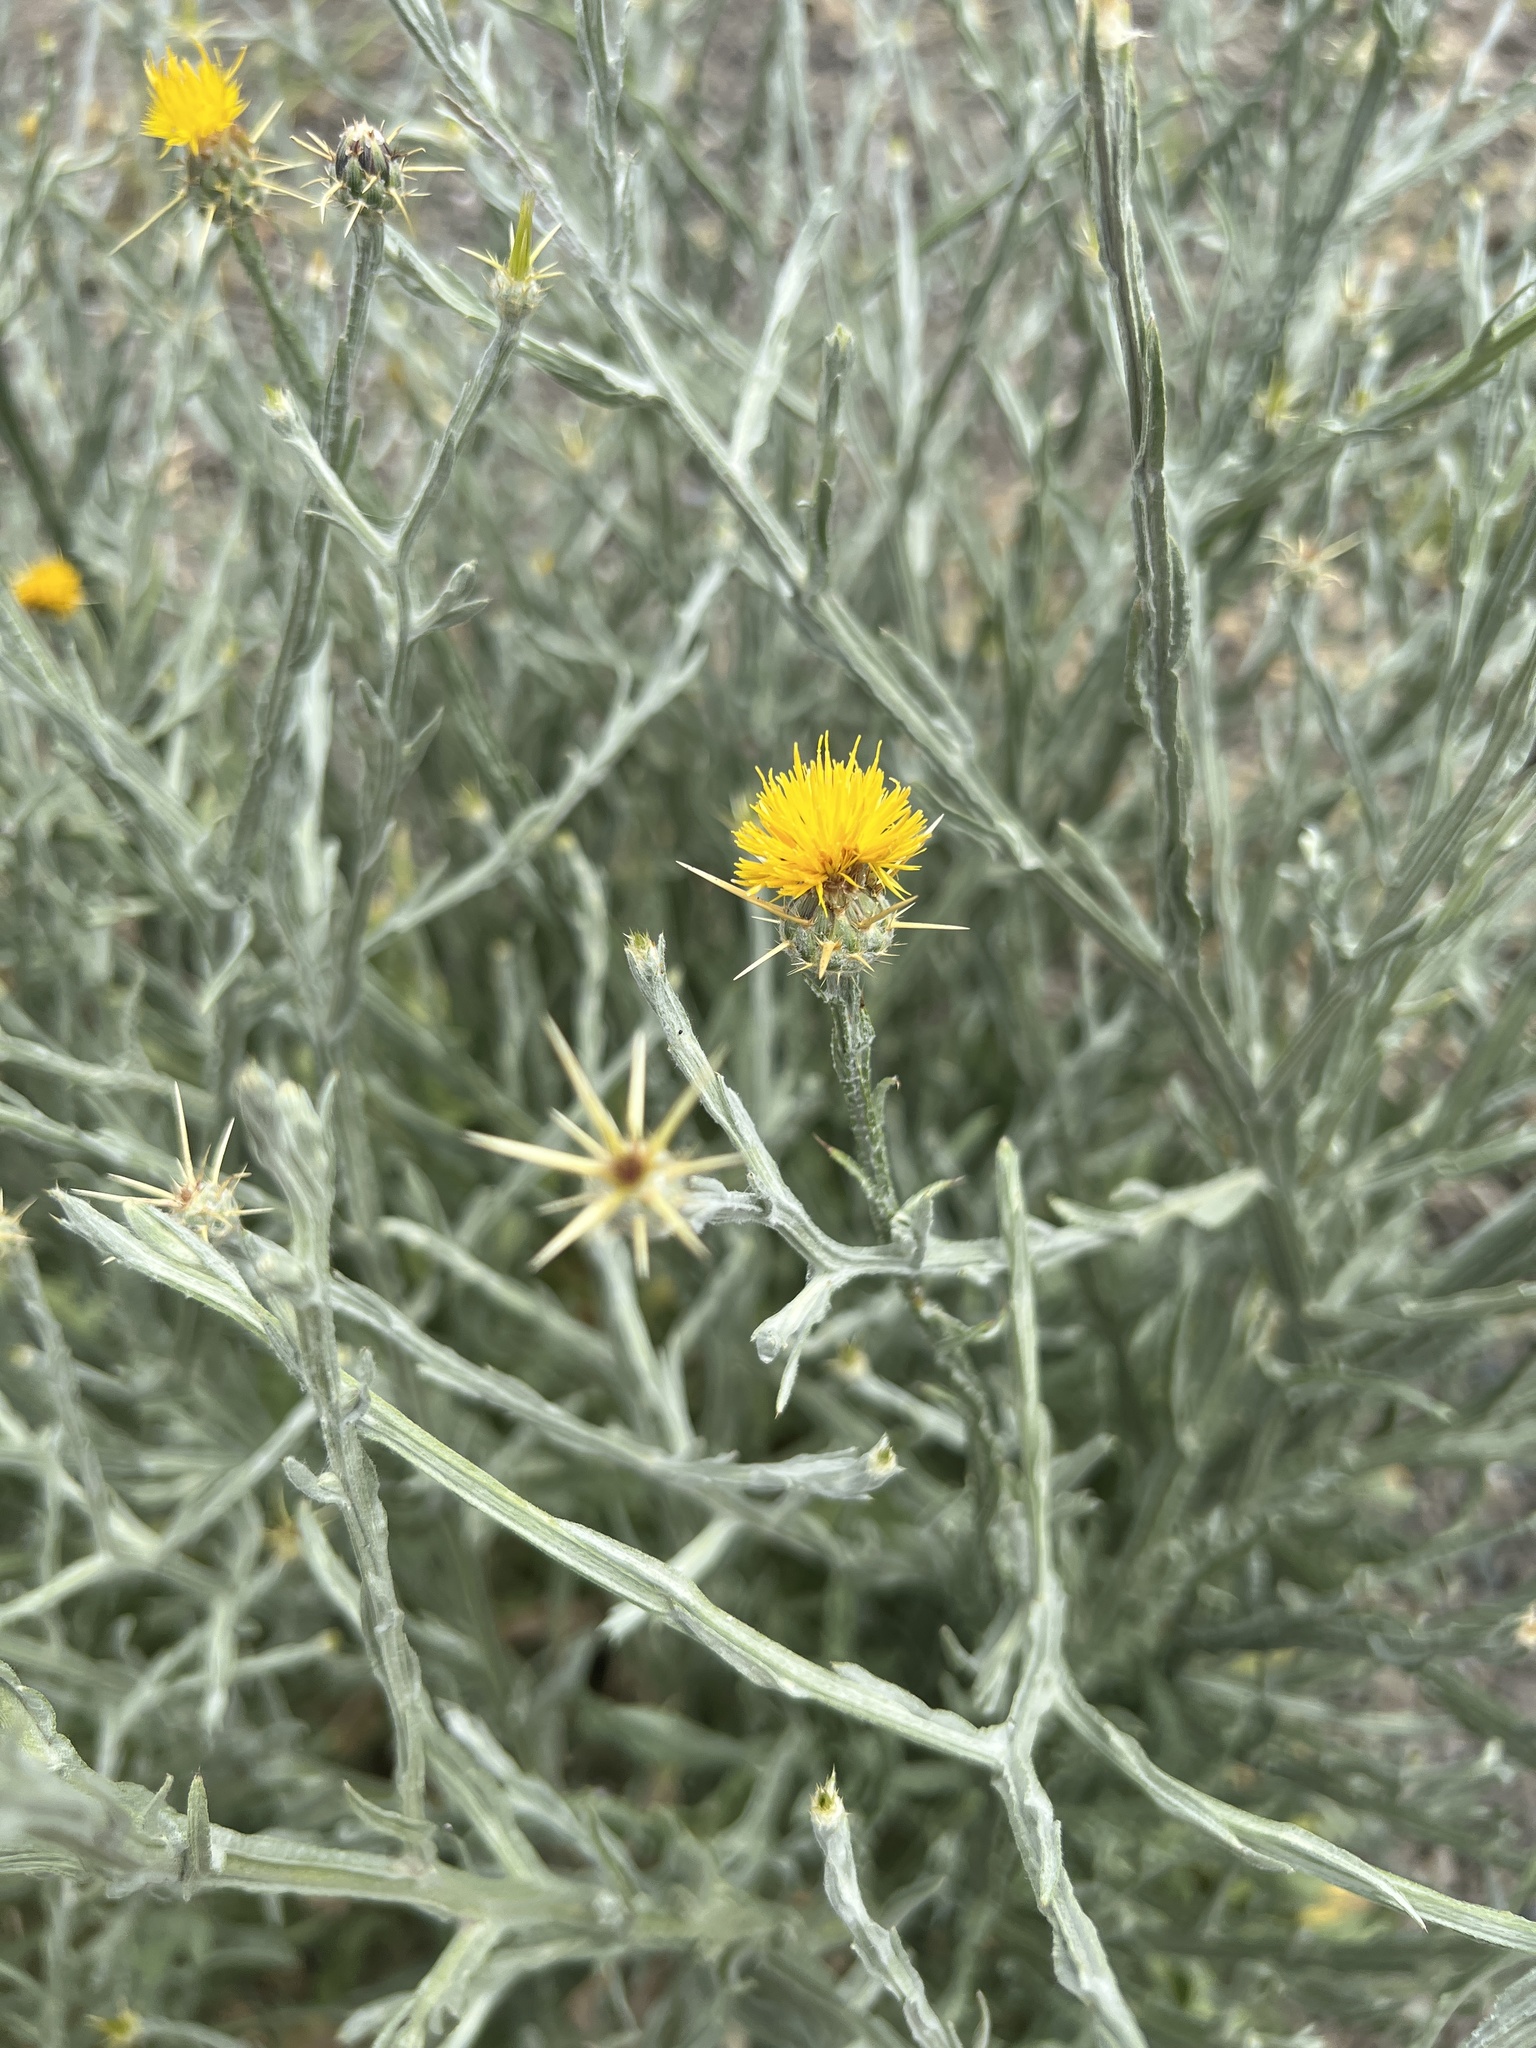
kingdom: Plantae
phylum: Tracheophyta
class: Magnoliopsida
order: Asterales
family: Asteraceae
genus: Centaurea
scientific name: Centaurea solstitialis
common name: Yellow star-thistle
